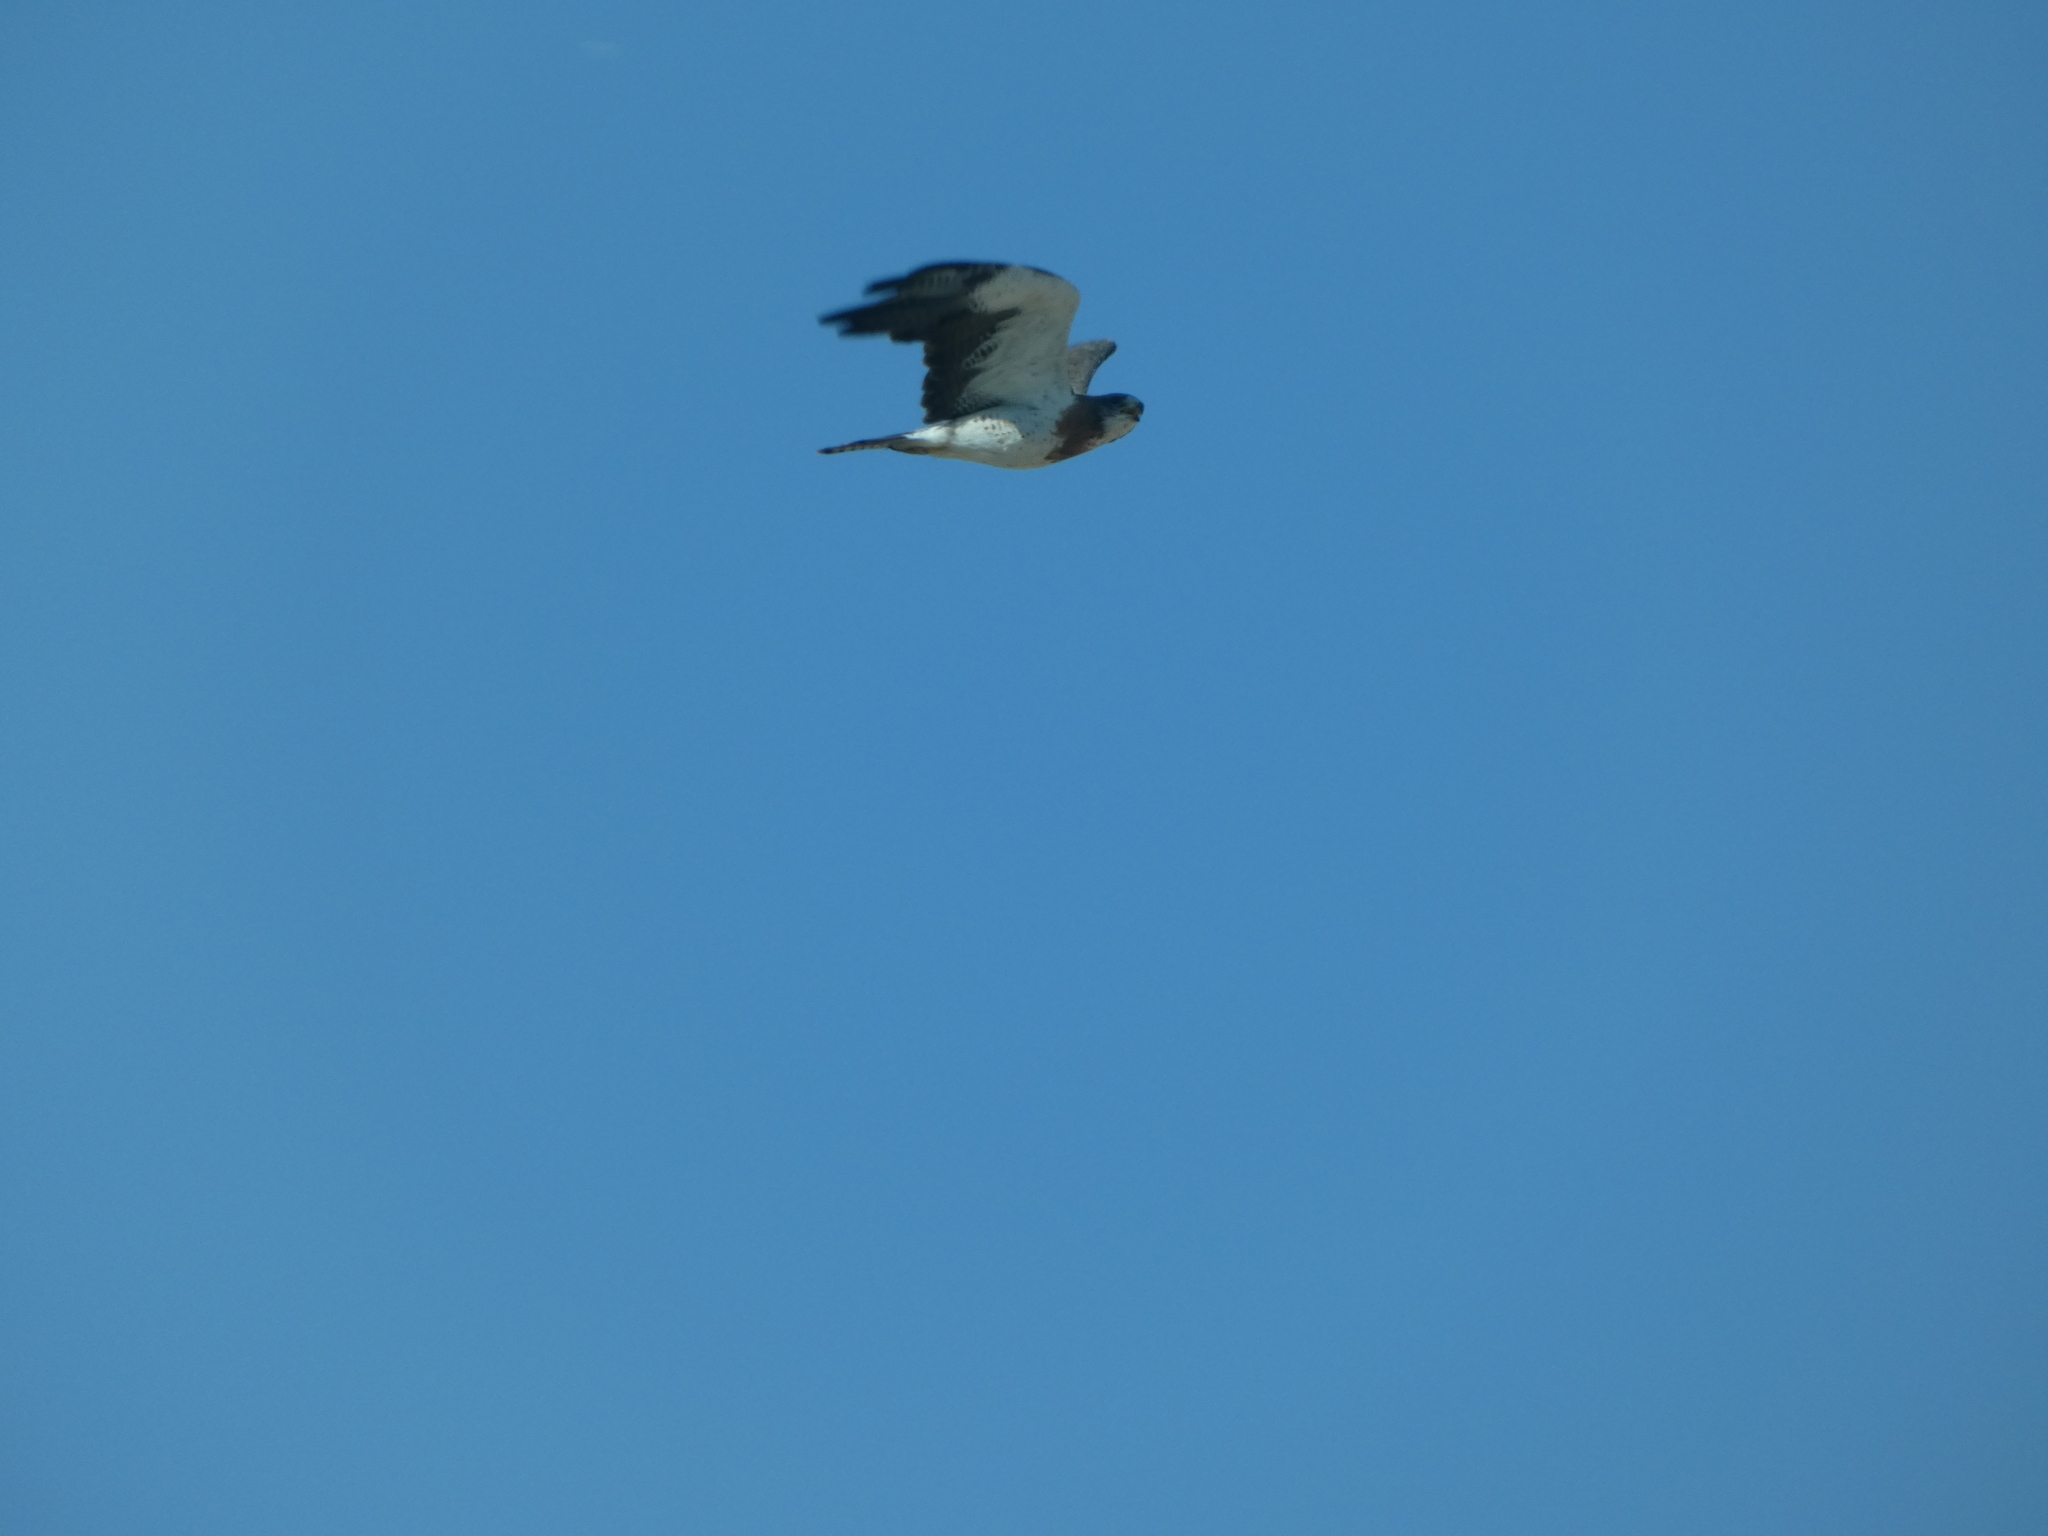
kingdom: Animalia
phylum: Chordata
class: Aves
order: Accipitriformes
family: Accipitridae
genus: Buteo
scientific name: Buteo swainsoni
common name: Swainson's hawk
